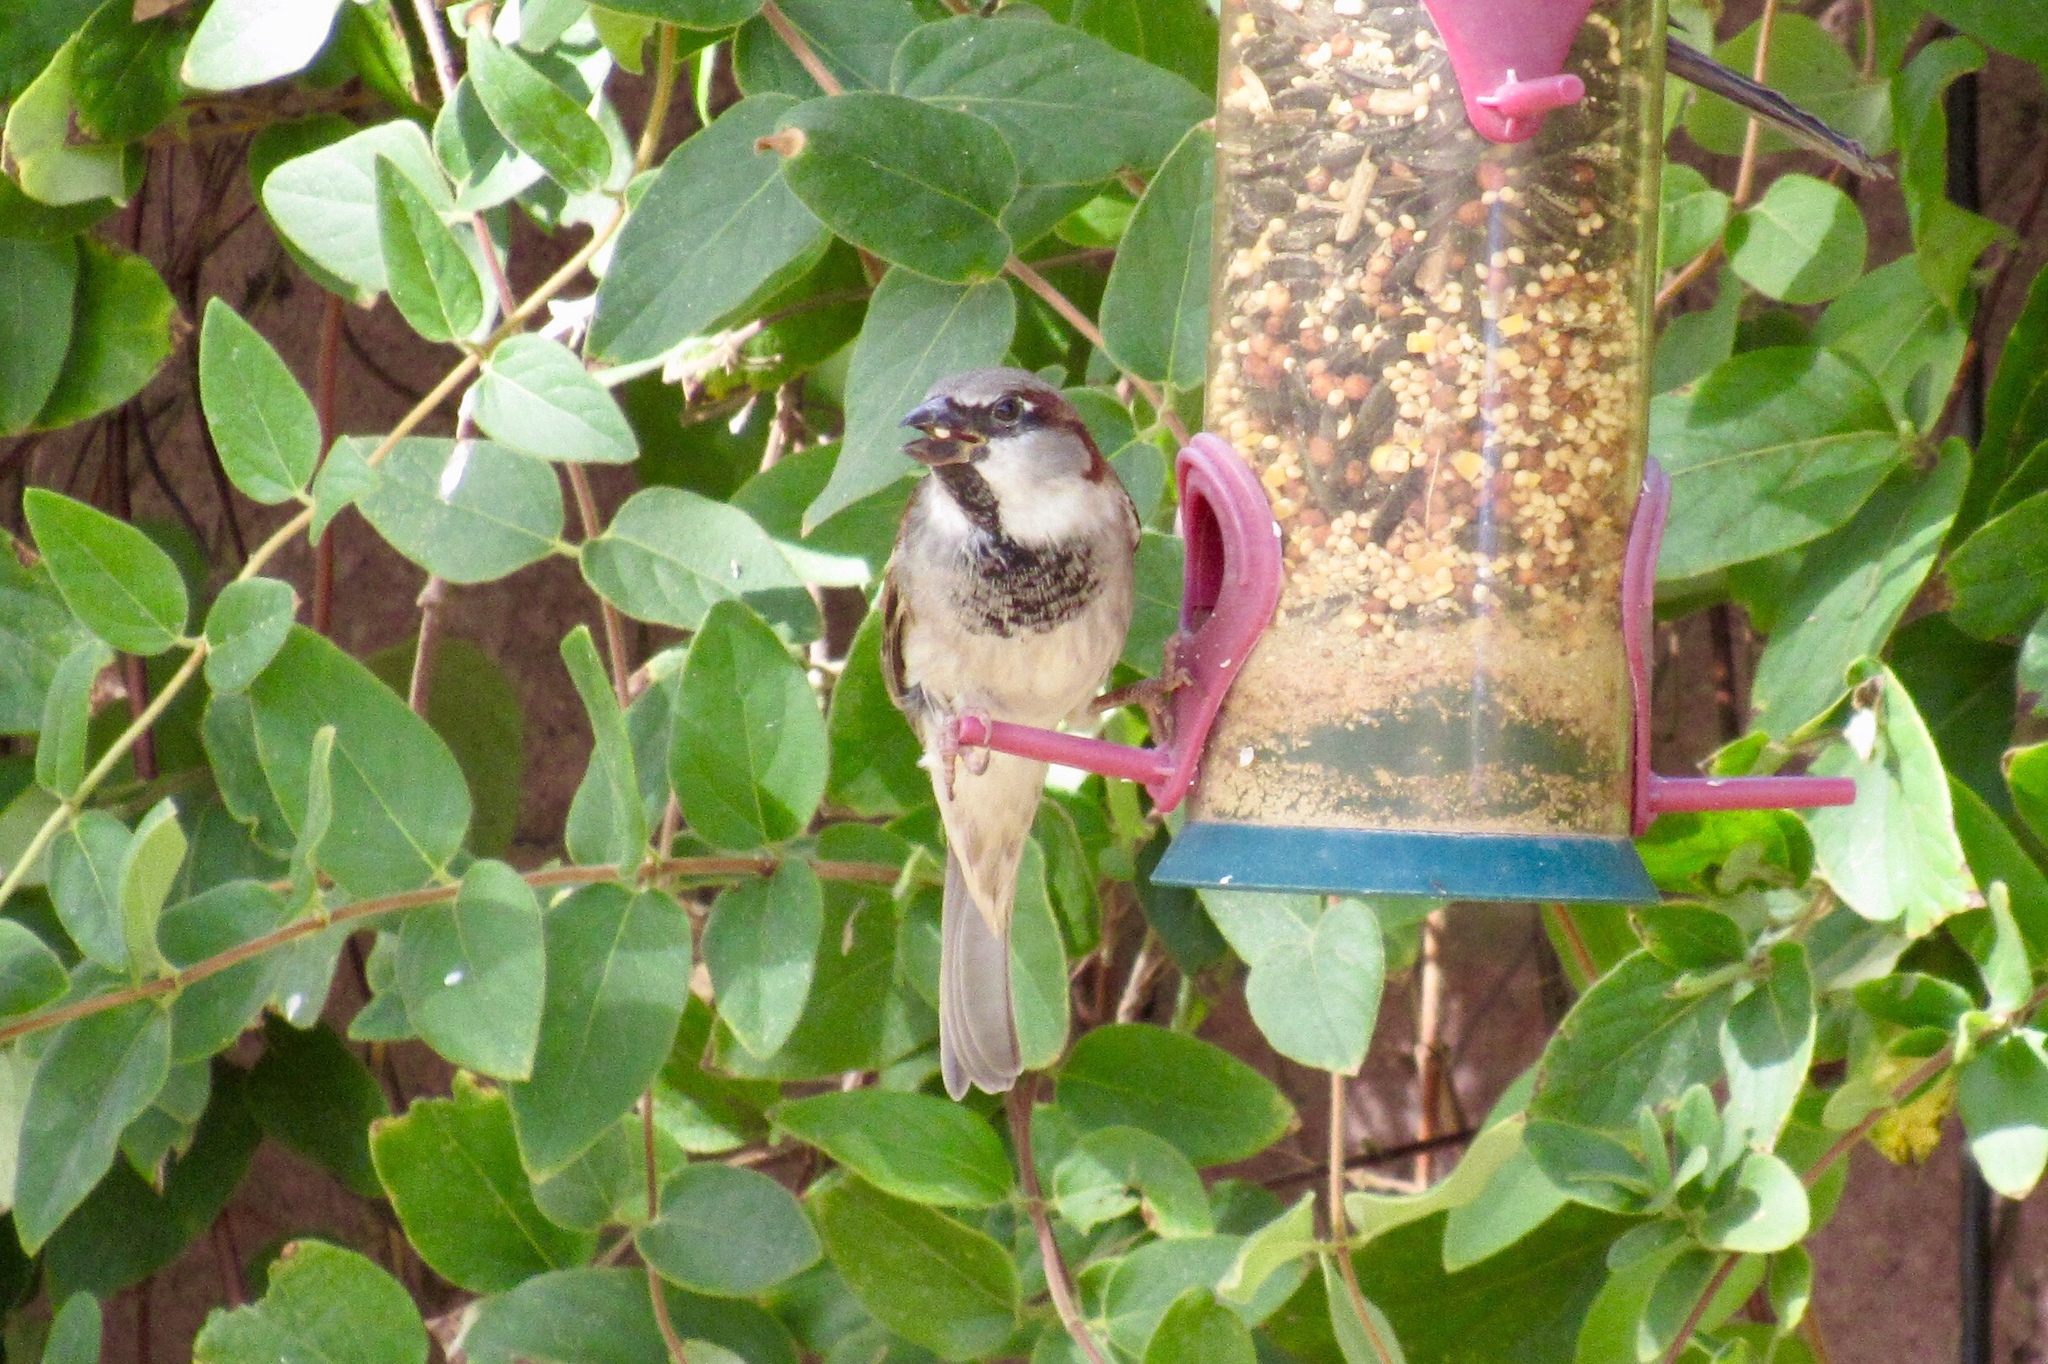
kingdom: Animalia
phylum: Chordata
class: Aves
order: Passeriformes
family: Passeridae
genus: Passer
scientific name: Passer domesticus
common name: House sparrow
